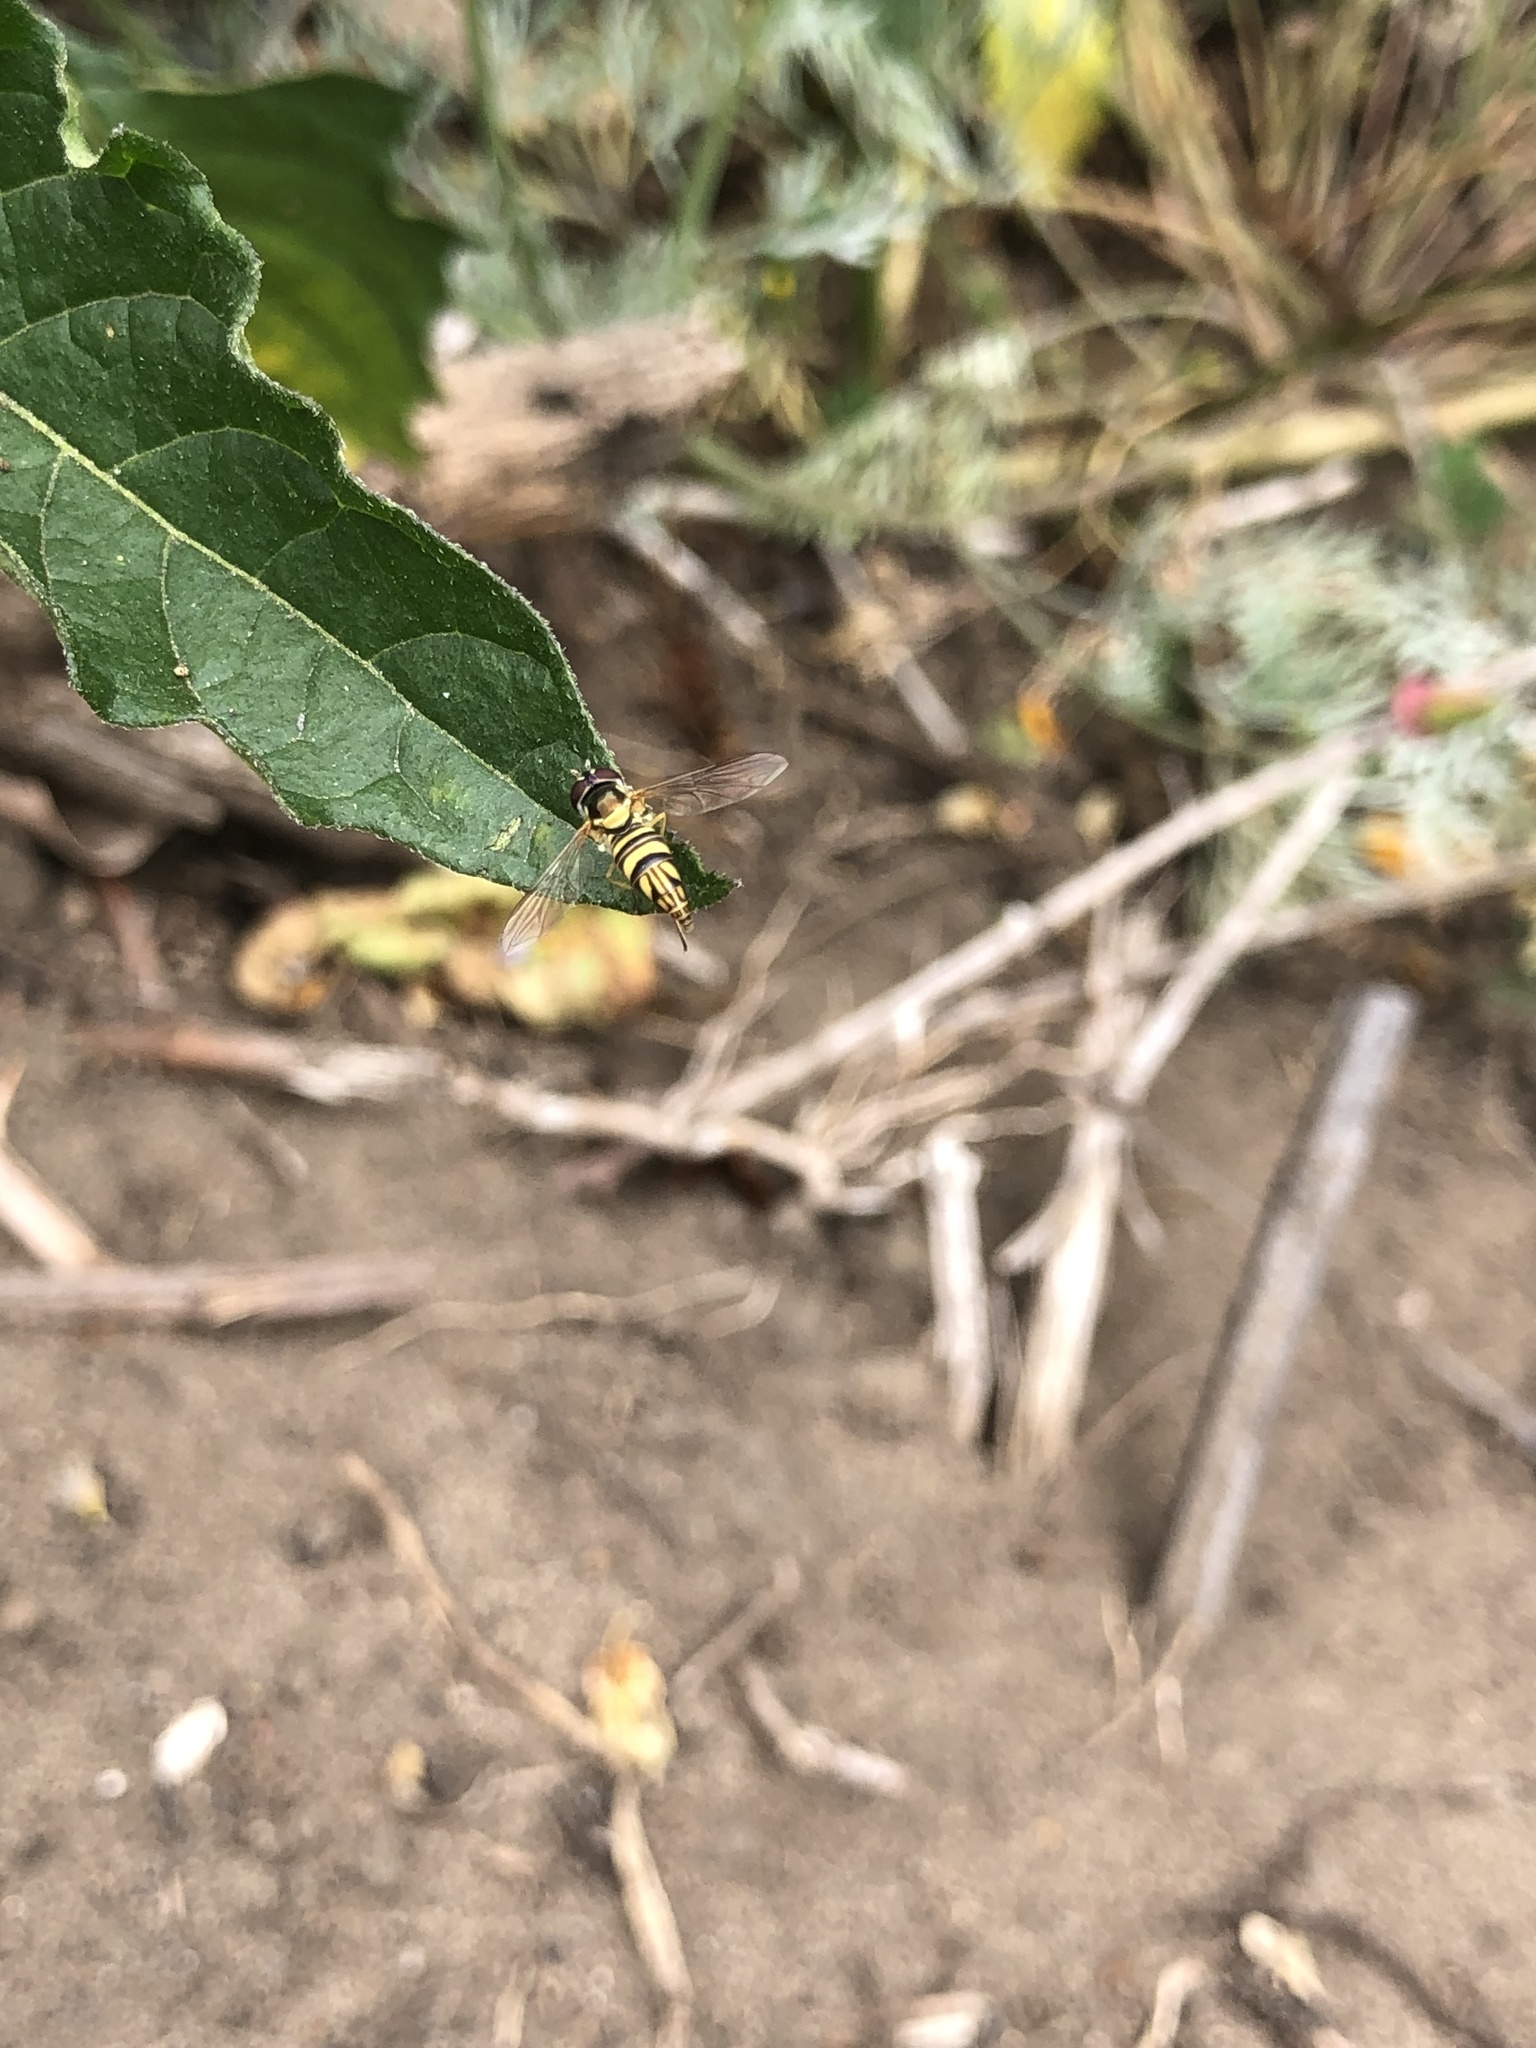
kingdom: Animalia
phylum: Arthropoda
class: Insecta
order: Diptera
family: Syrphidae
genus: Allograpta
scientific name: Allograpta obliqua
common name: Common oblique syrphid
